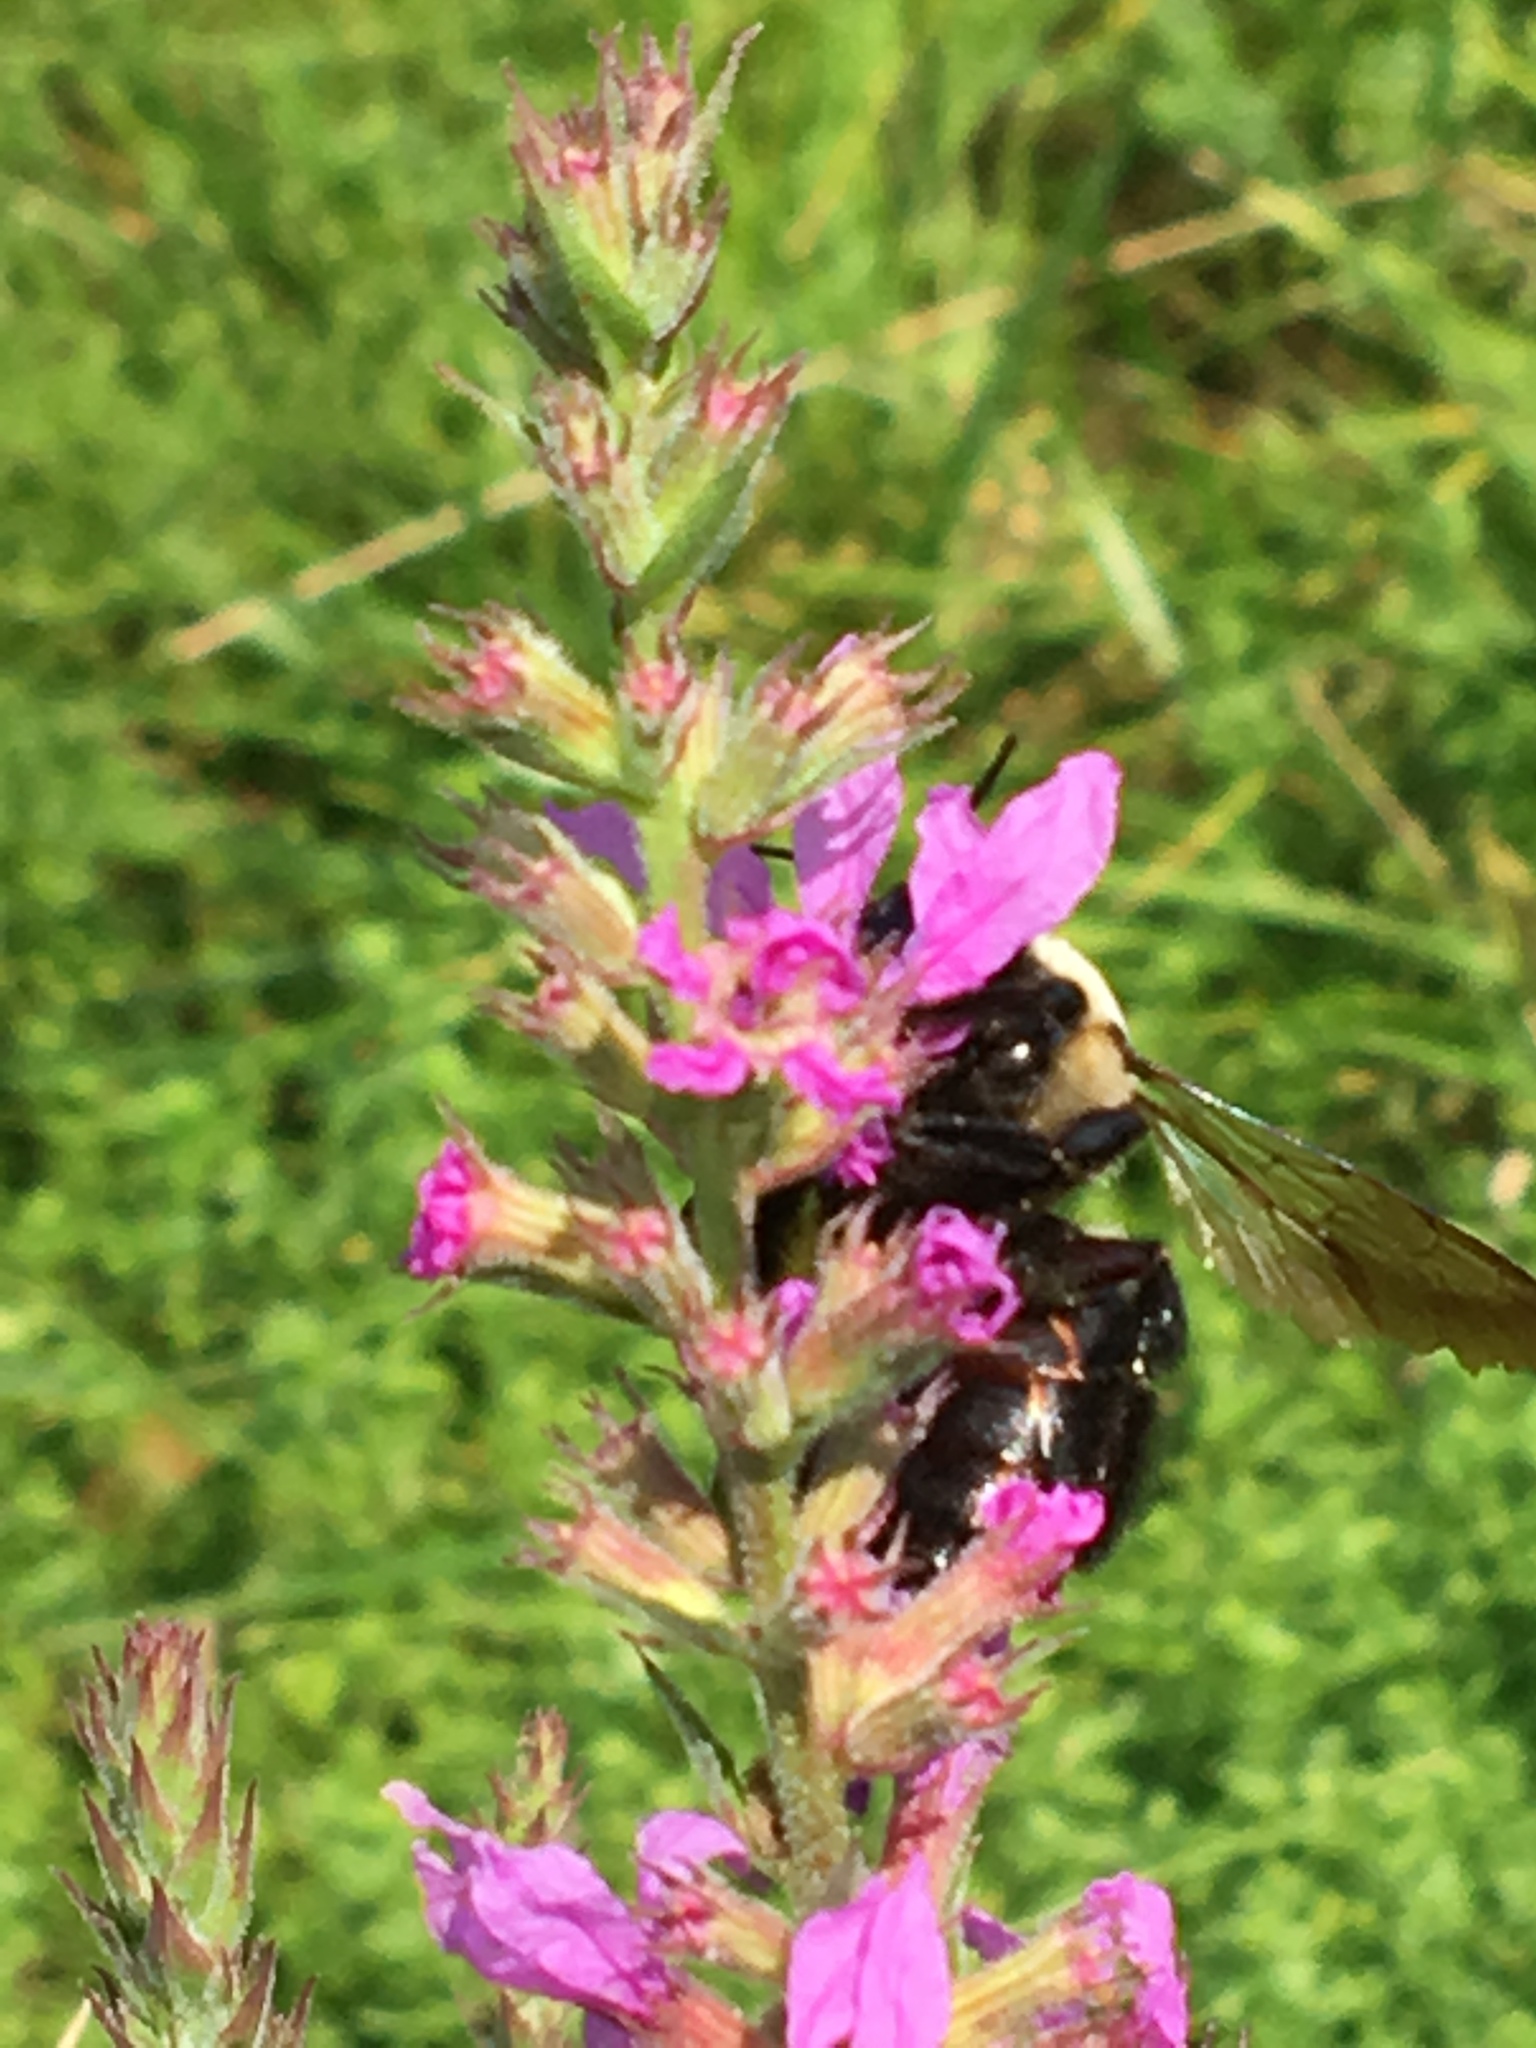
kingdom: Animalia
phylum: Arthropoda
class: Insecta
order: Hymenoptera
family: Apidae
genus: Xylocopa
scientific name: Xylocopa virginica
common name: Carpenter bee
